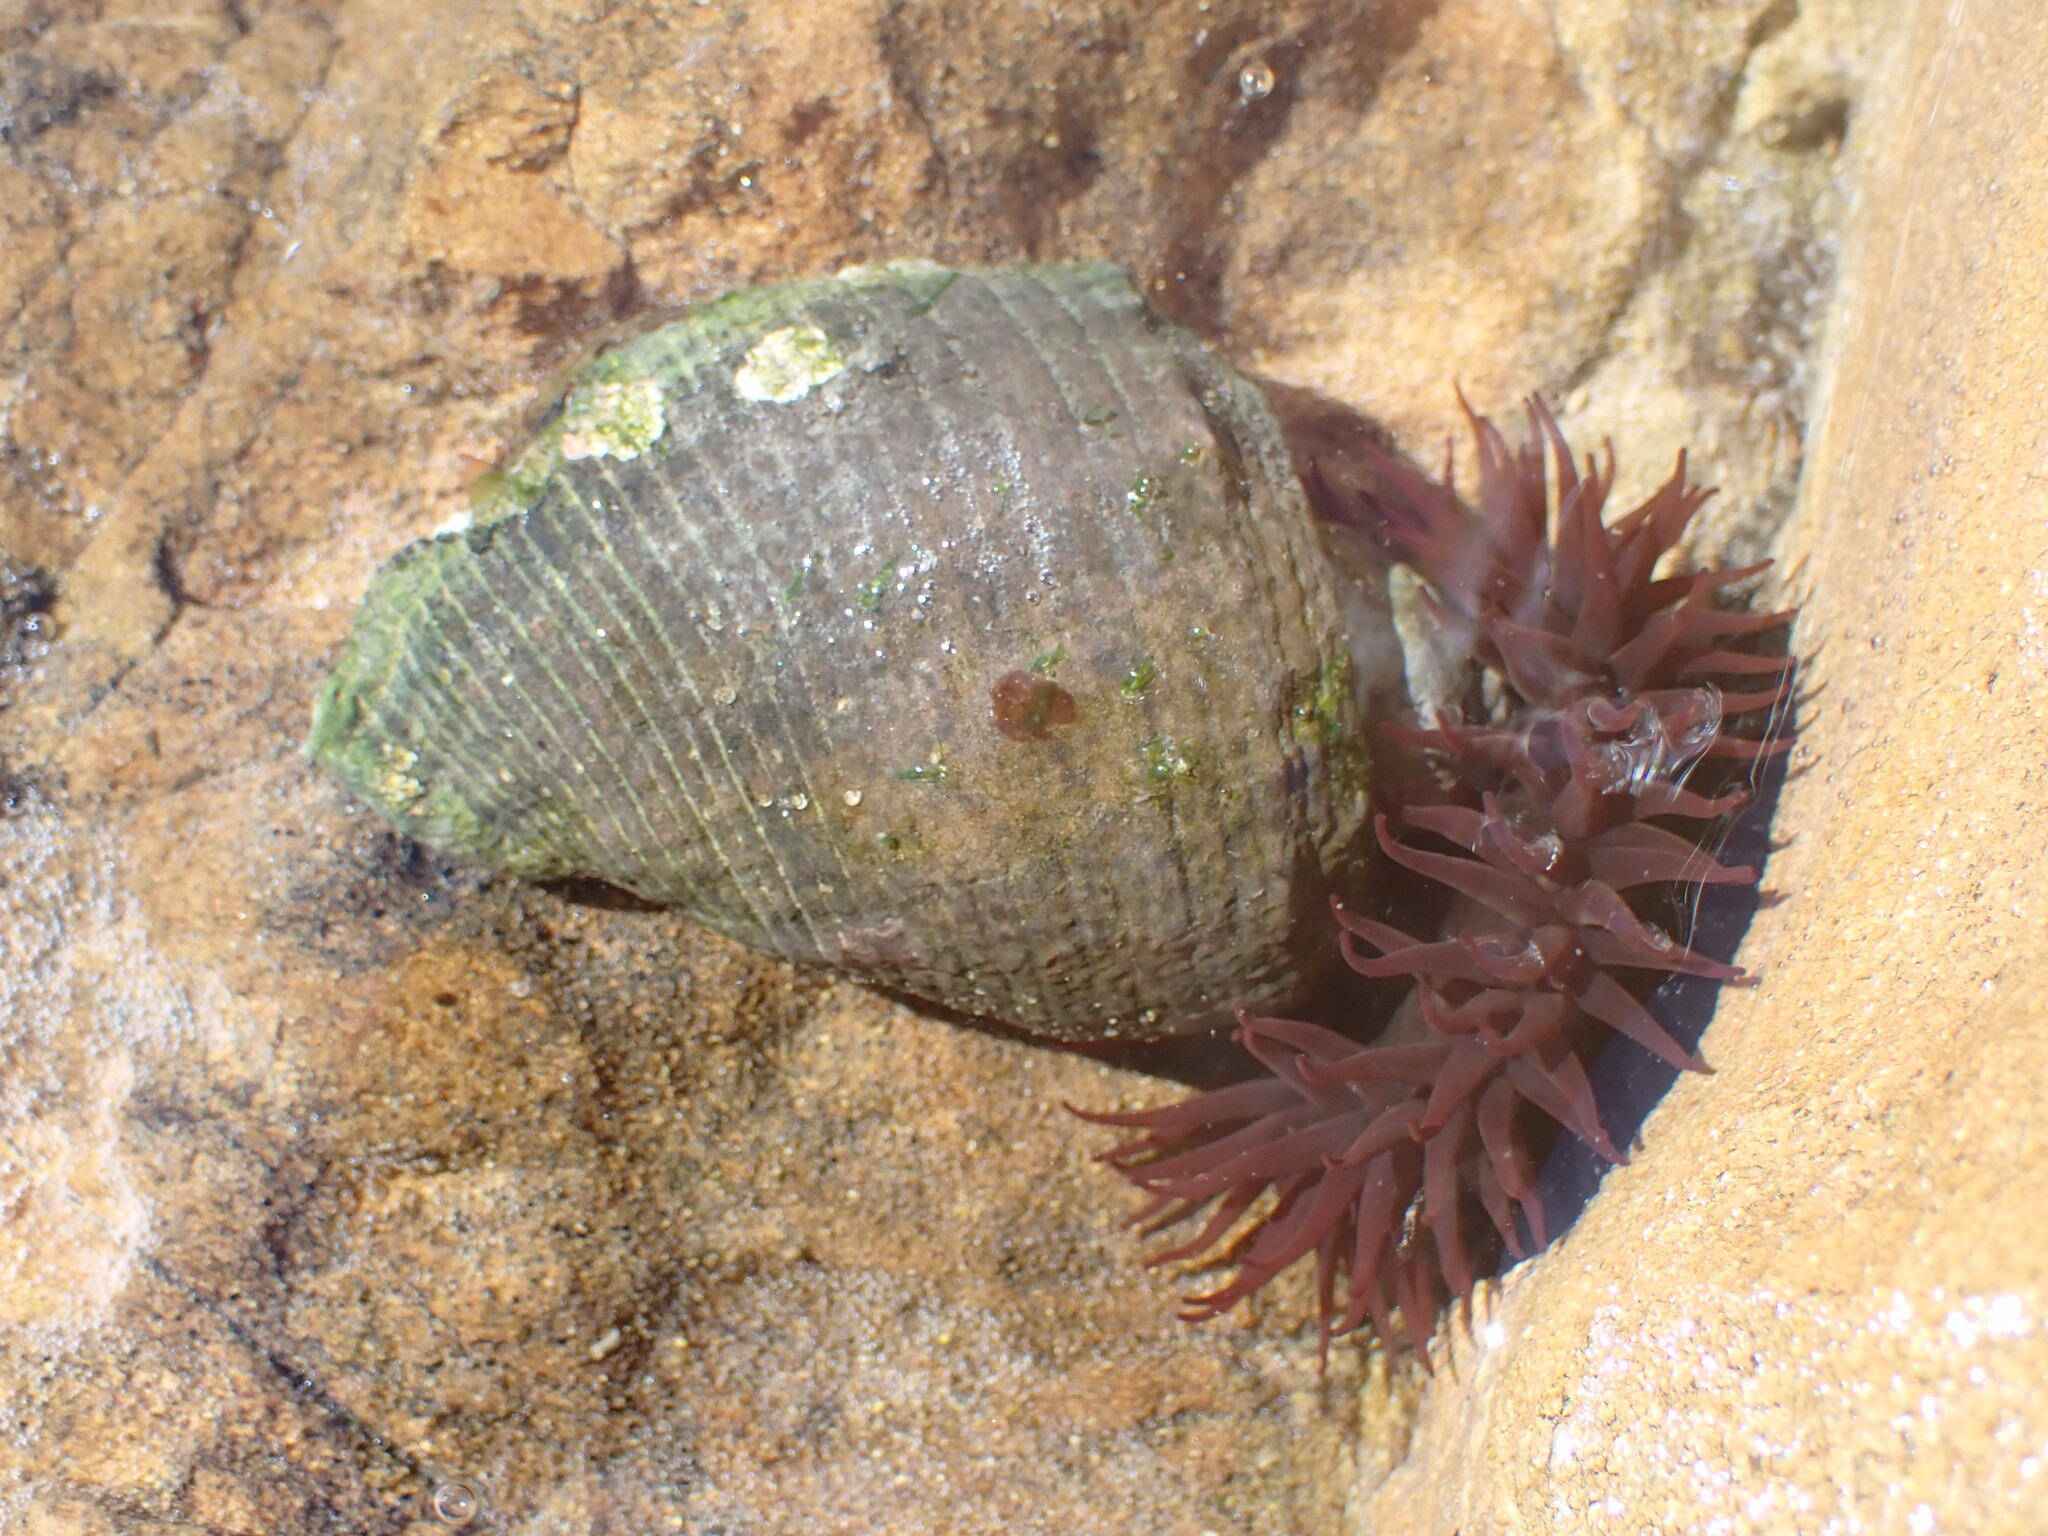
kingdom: Animalia
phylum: Mollusca
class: Gastropoda
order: Neogastropoda
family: Muricidae
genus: Haustrum
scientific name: Haustrum haustorium
